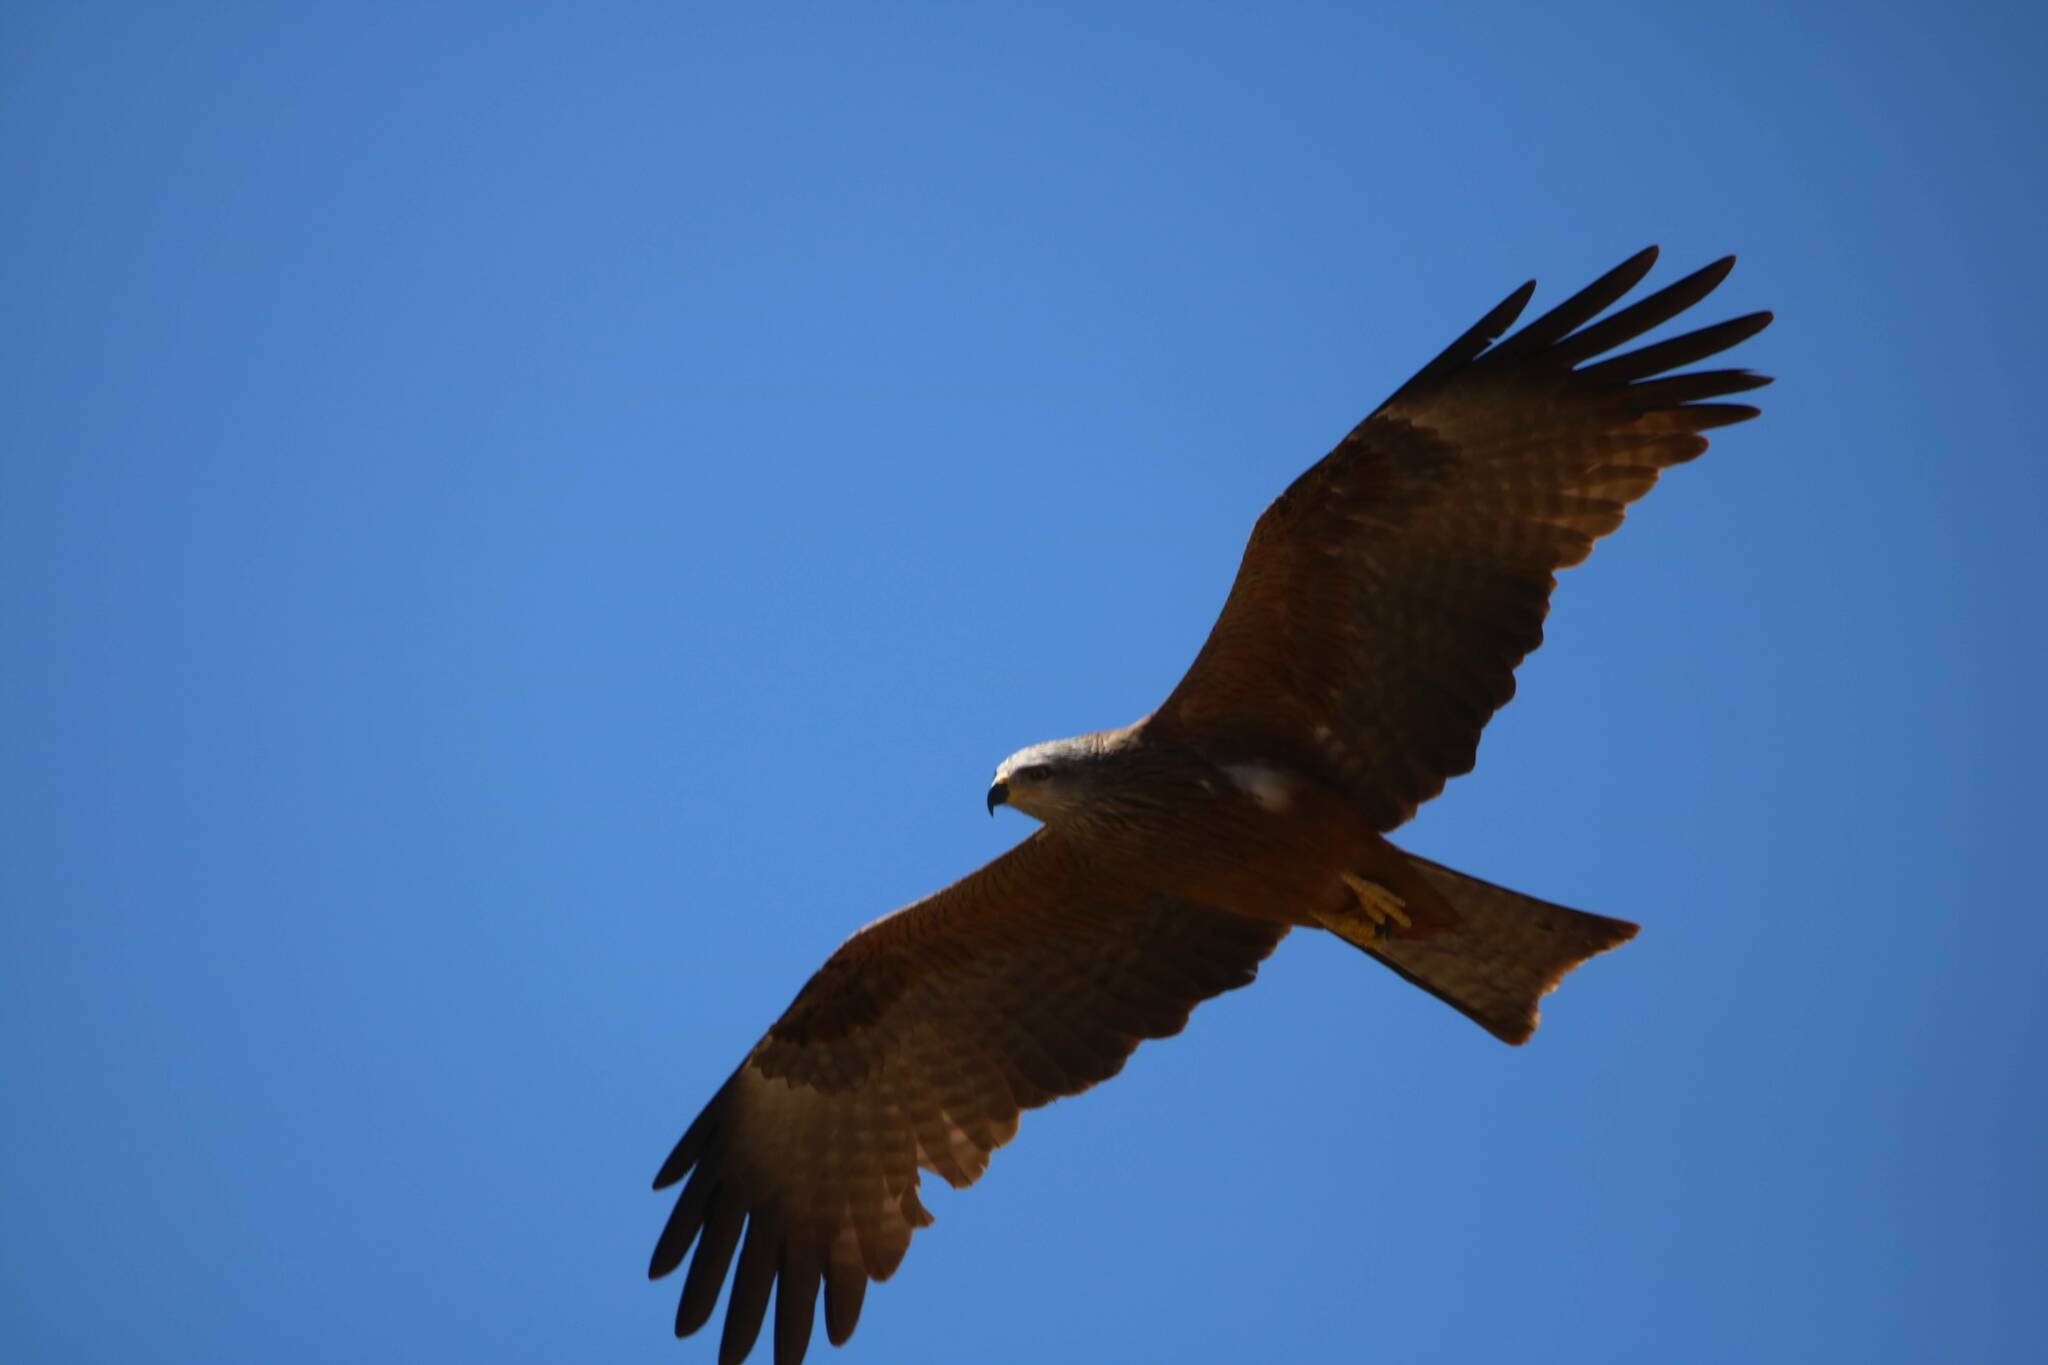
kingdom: Animalia
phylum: Chordata
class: Aves
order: Accipitriformes
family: Accipitridae
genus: Milvus
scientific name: Milvus migrans
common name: Black kite
